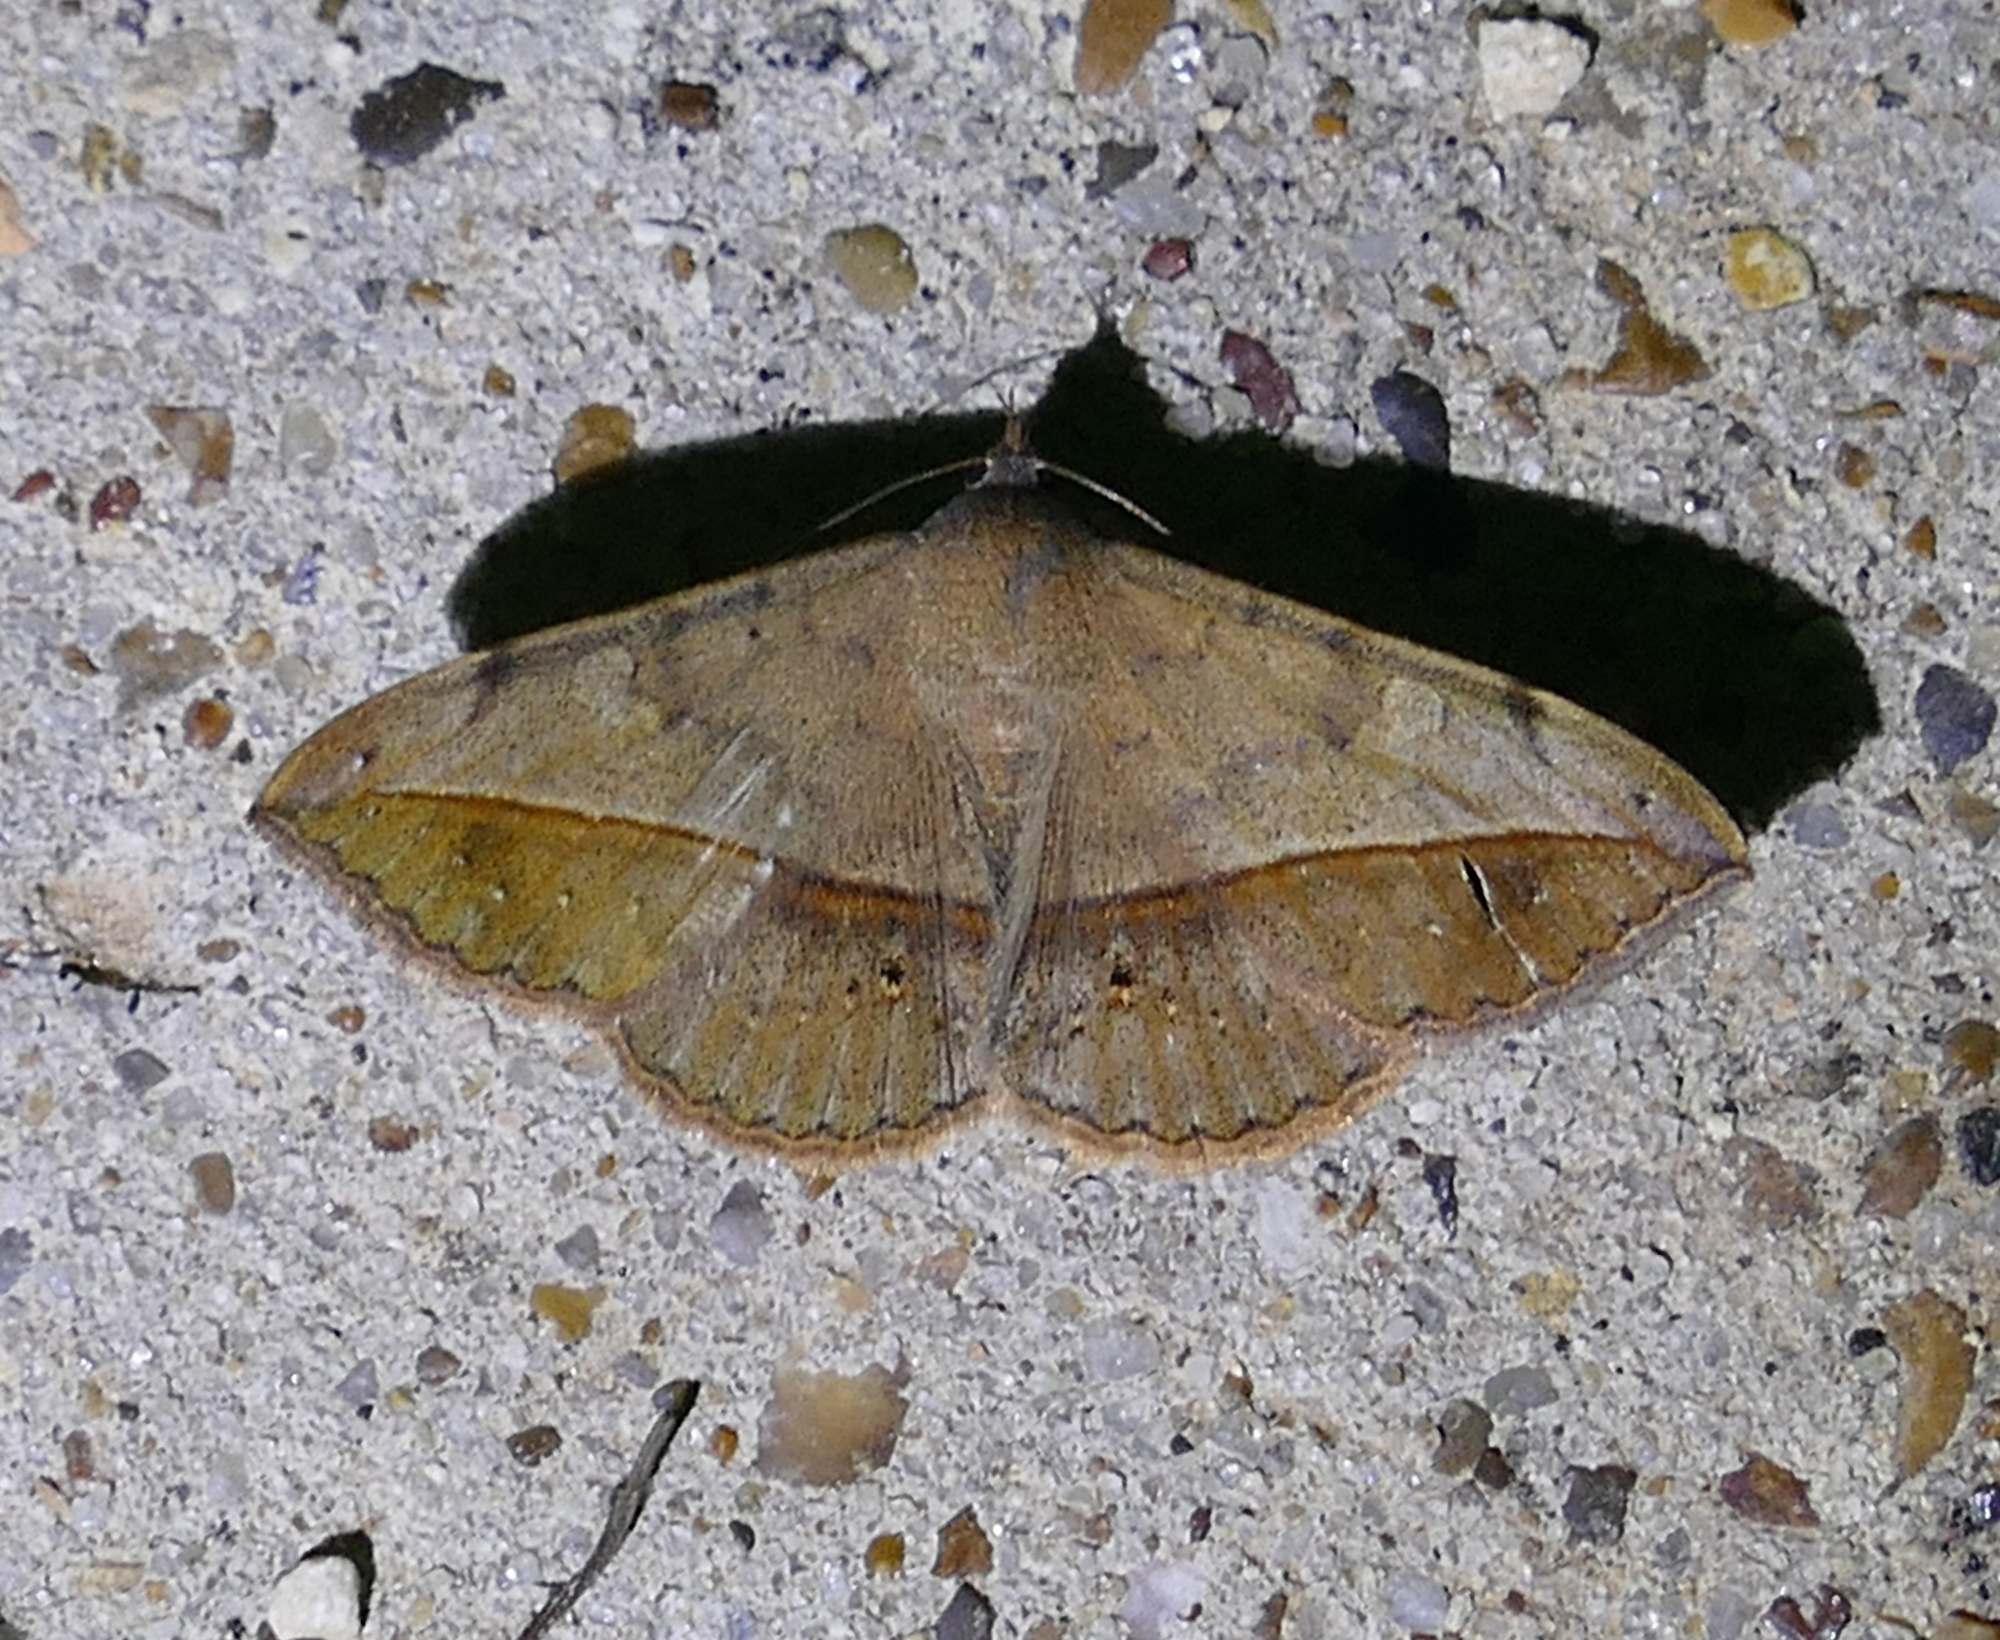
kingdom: Animalia
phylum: Arthropoda
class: Insecta
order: Lepidoptera
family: Erebidae
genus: Anticarsia
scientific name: Anticarsia gemmatalis
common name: Cutworm moth
